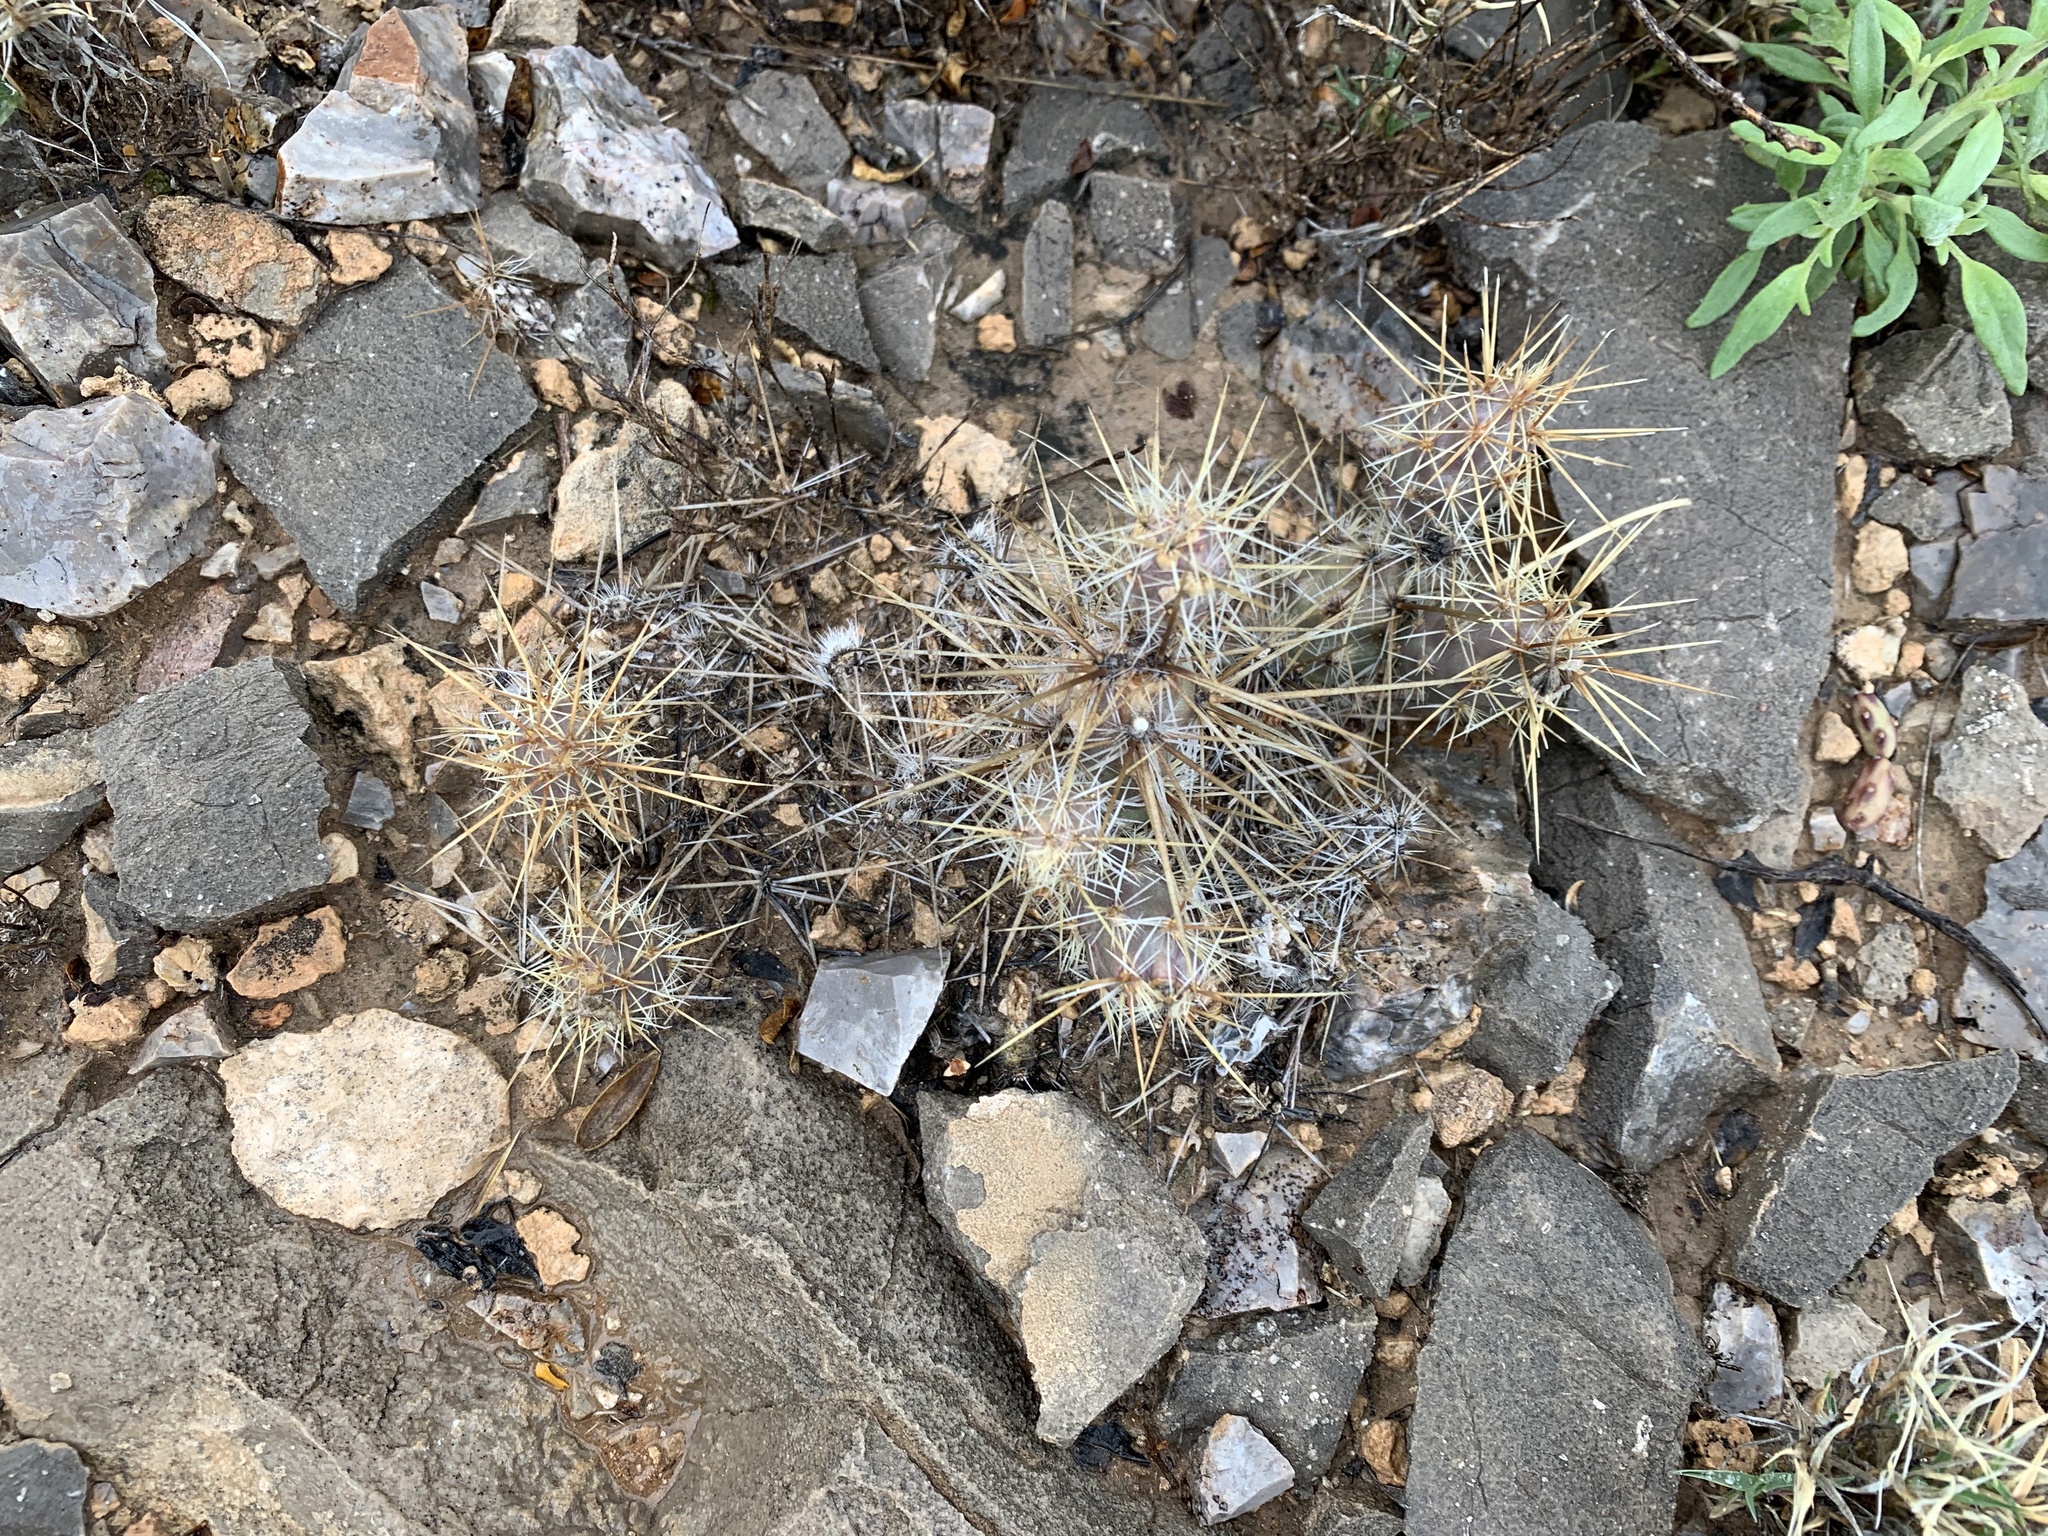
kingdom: Plantae
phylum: Tracheophyta
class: Magnoliopsida
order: Caryophyllales
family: Cactaceae
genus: Grusonia
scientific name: Grusonia grahamii
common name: Graham's club cactus
